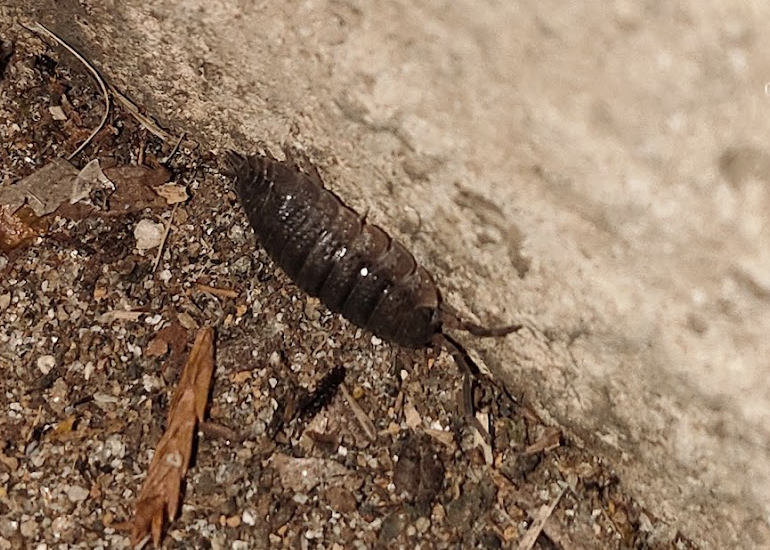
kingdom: Animalia
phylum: Arthropoda
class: Malacostraca
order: Isopoda
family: Porcellionidae
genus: Porcellio
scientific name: Porcellio scaber
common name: Common rough woodlouse
